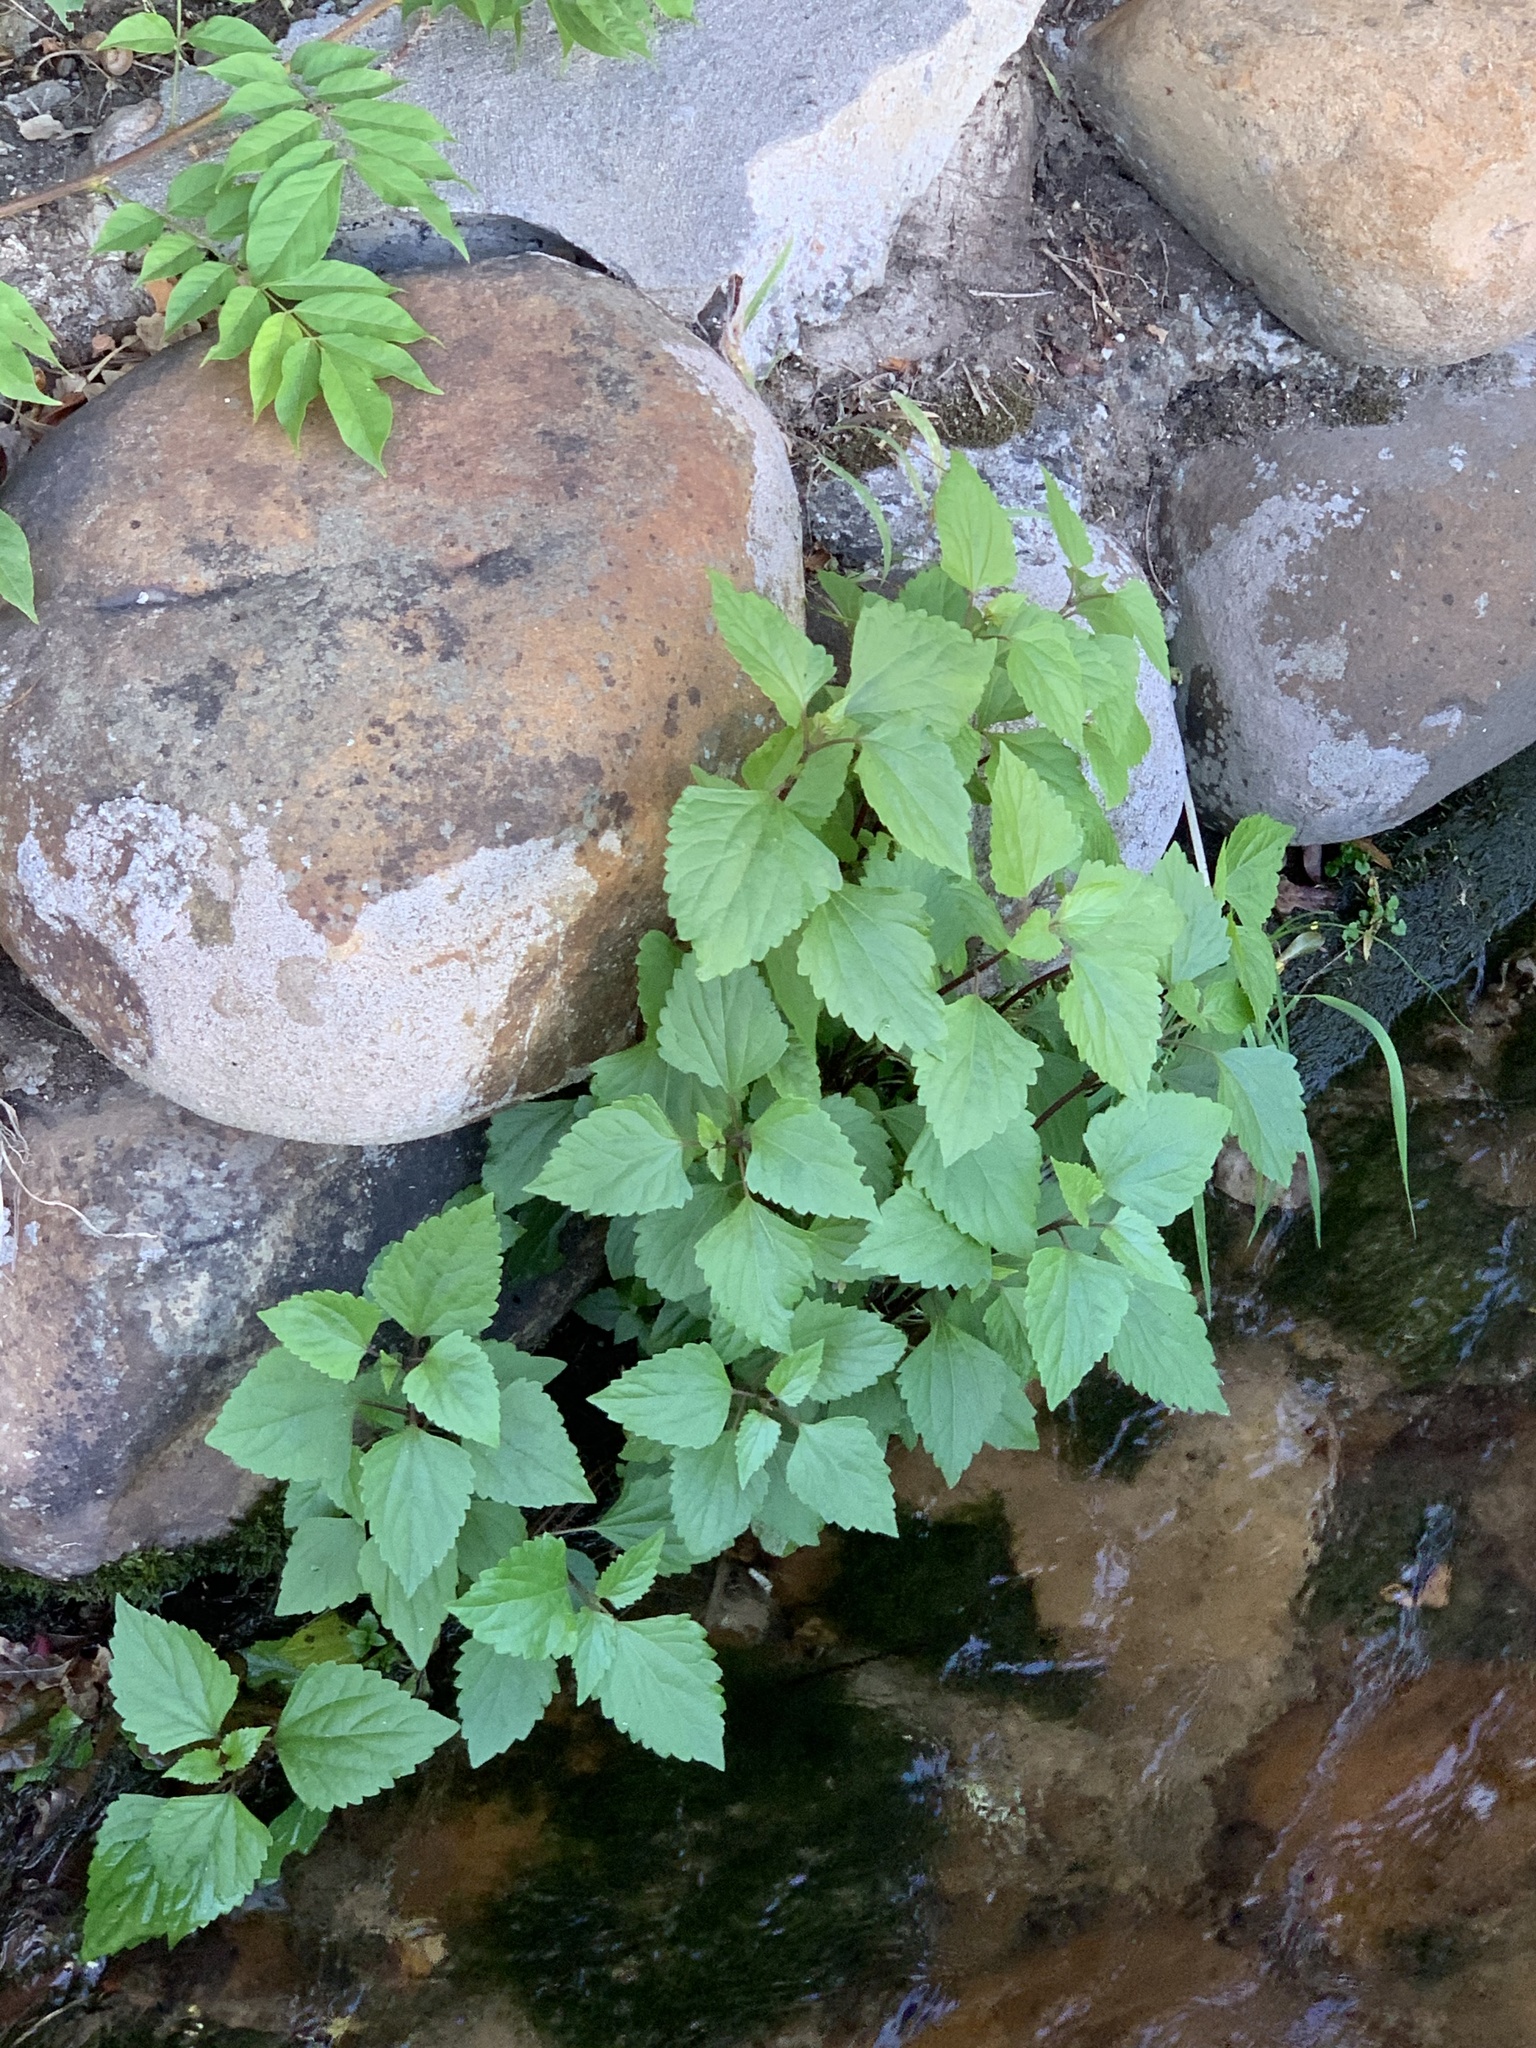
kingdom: Plantae
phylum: Tracheophyta
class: Magnoliopsida
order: Asterales
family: Asteraceae
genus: Ageratina
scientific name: Ageratina adenophora
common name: Sticky snakeroot
